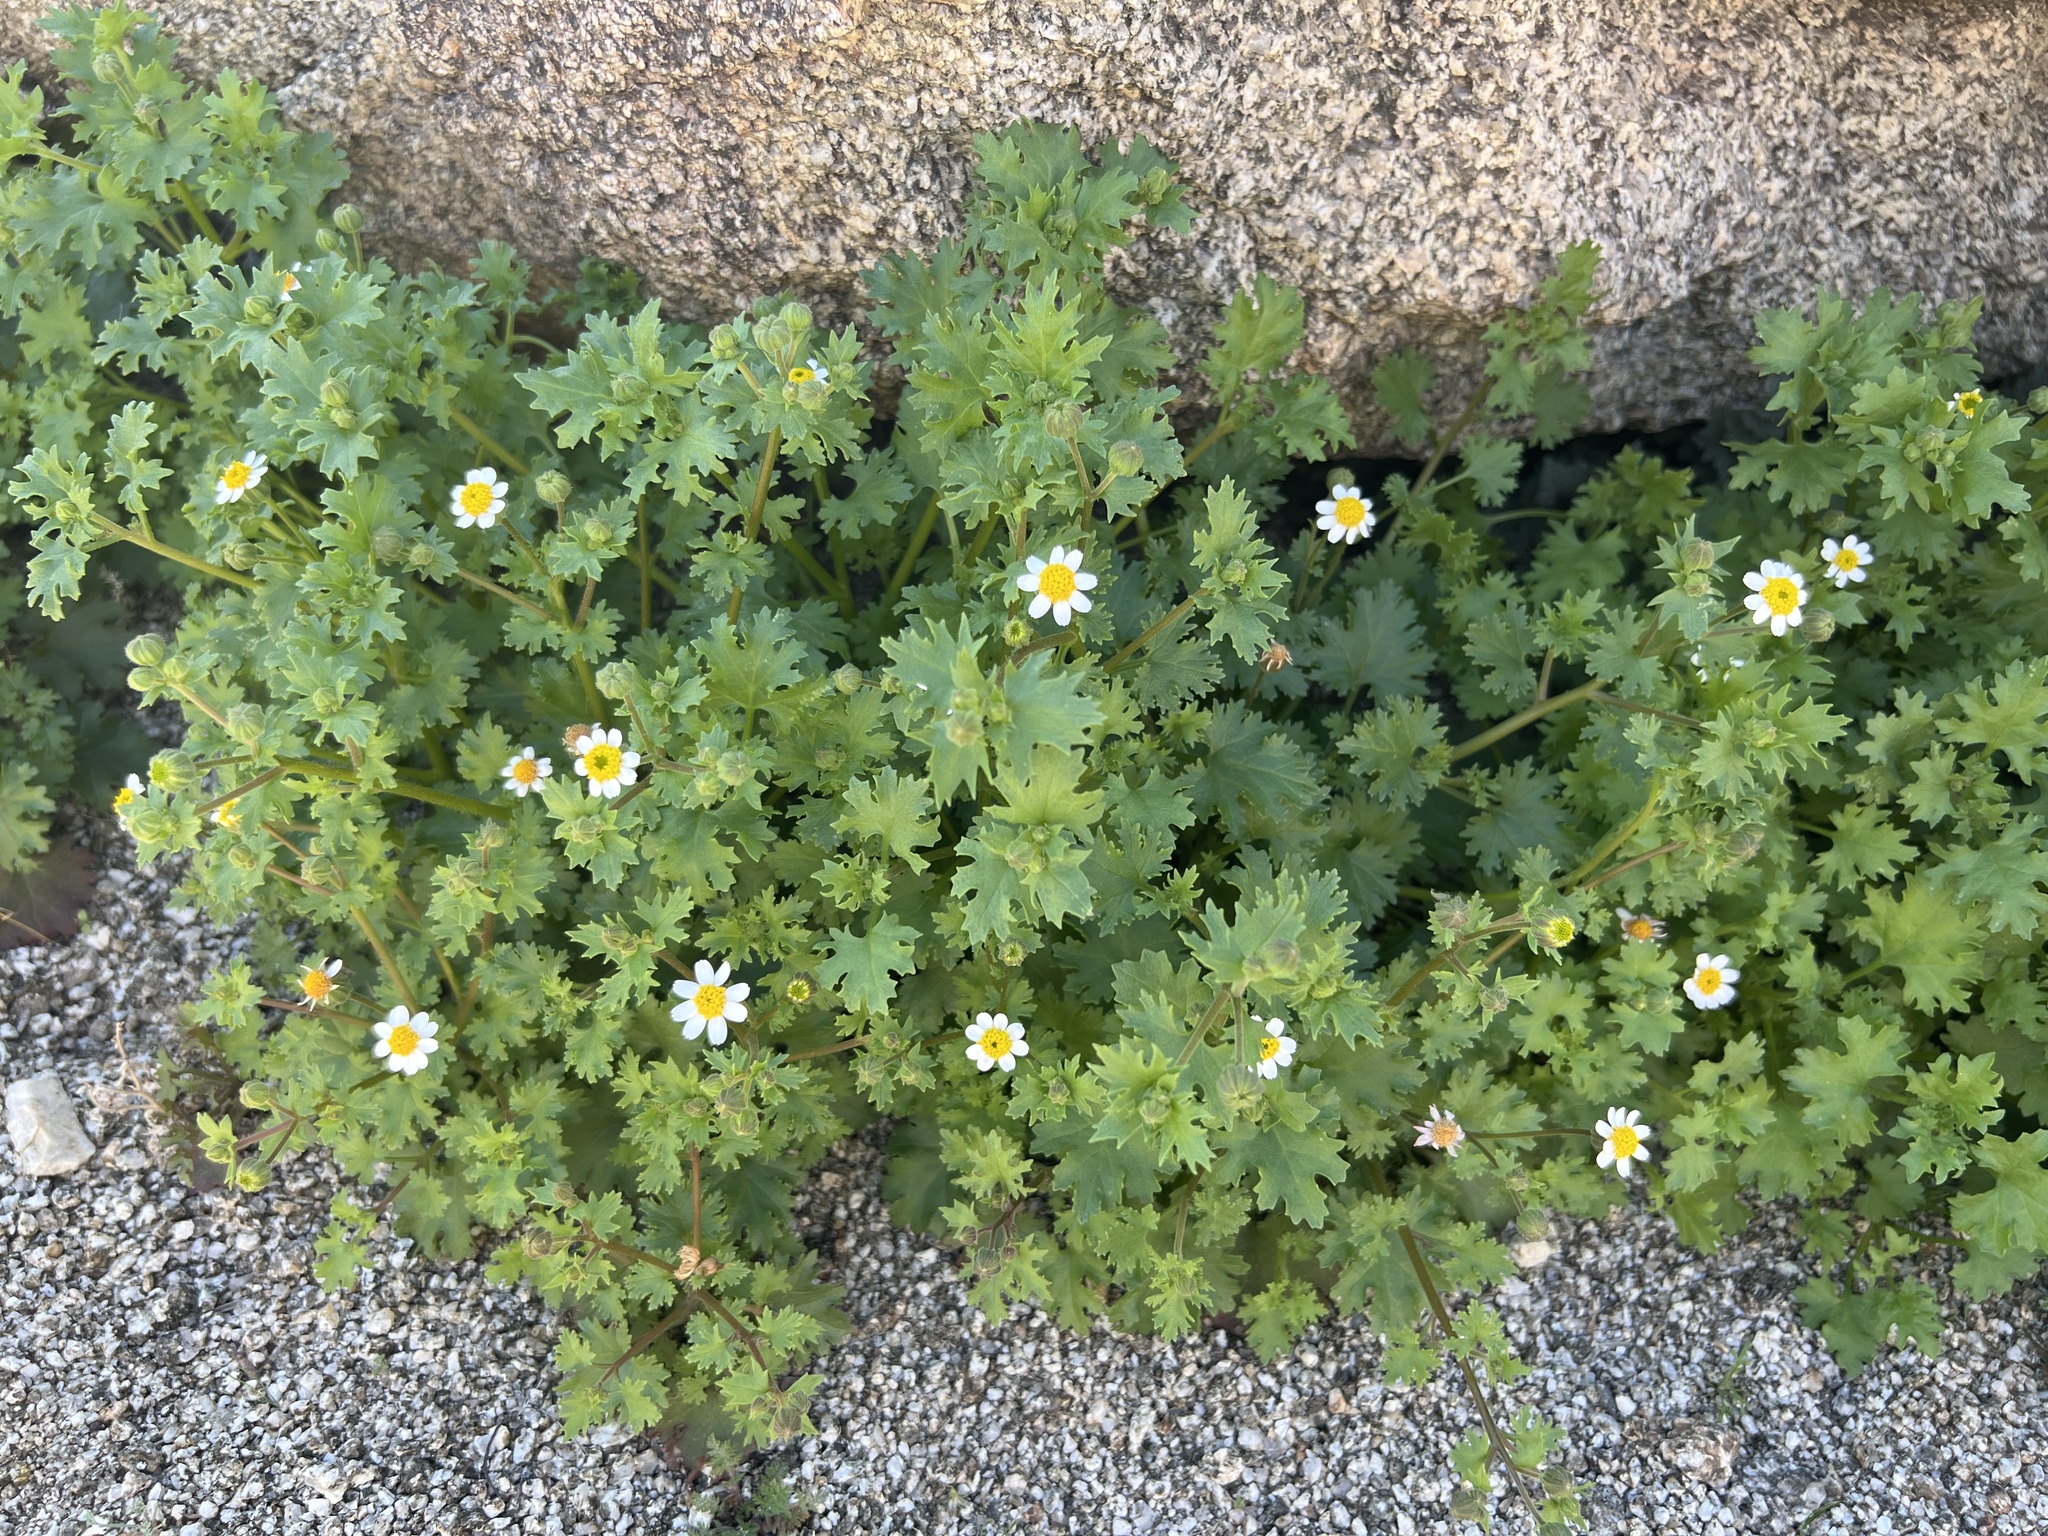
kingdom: Plantae
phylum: Tracheophyta
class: Magnoliopsida
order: Asterales
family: Asteraceae
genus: Laphamia
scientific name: Laphamia emoryi
